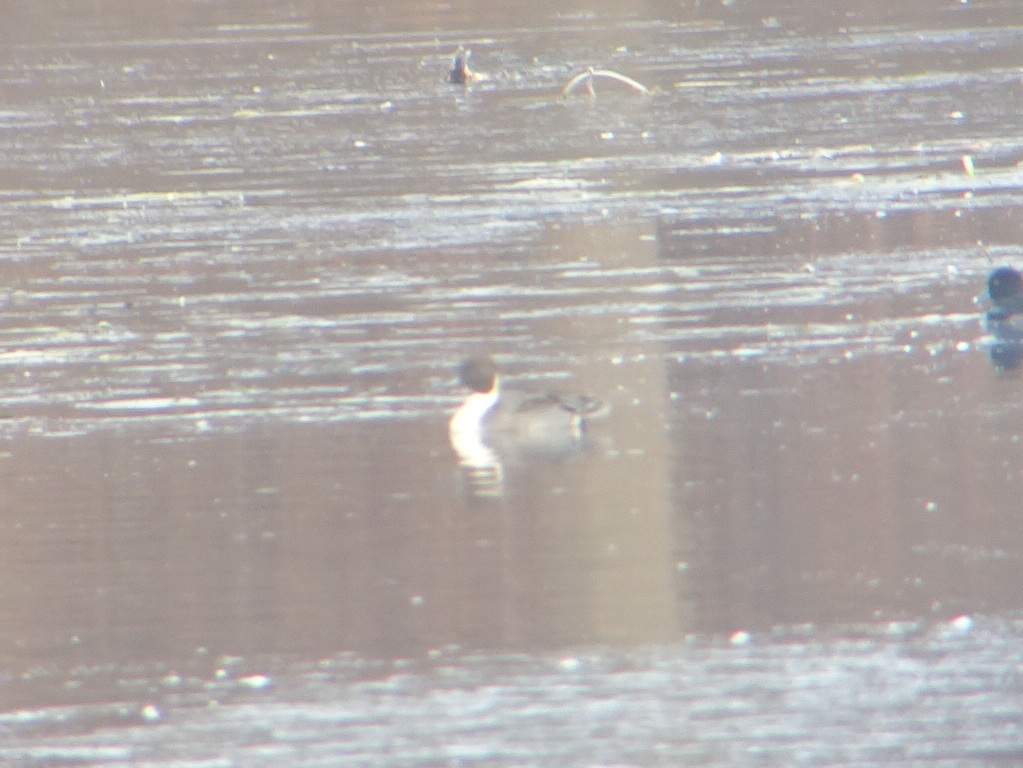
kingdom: Animalia
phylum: Chordata
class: Aves
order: Anseriformes
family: Anatidae
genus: Anas
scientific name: Anas acuta
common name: Northern pintail
